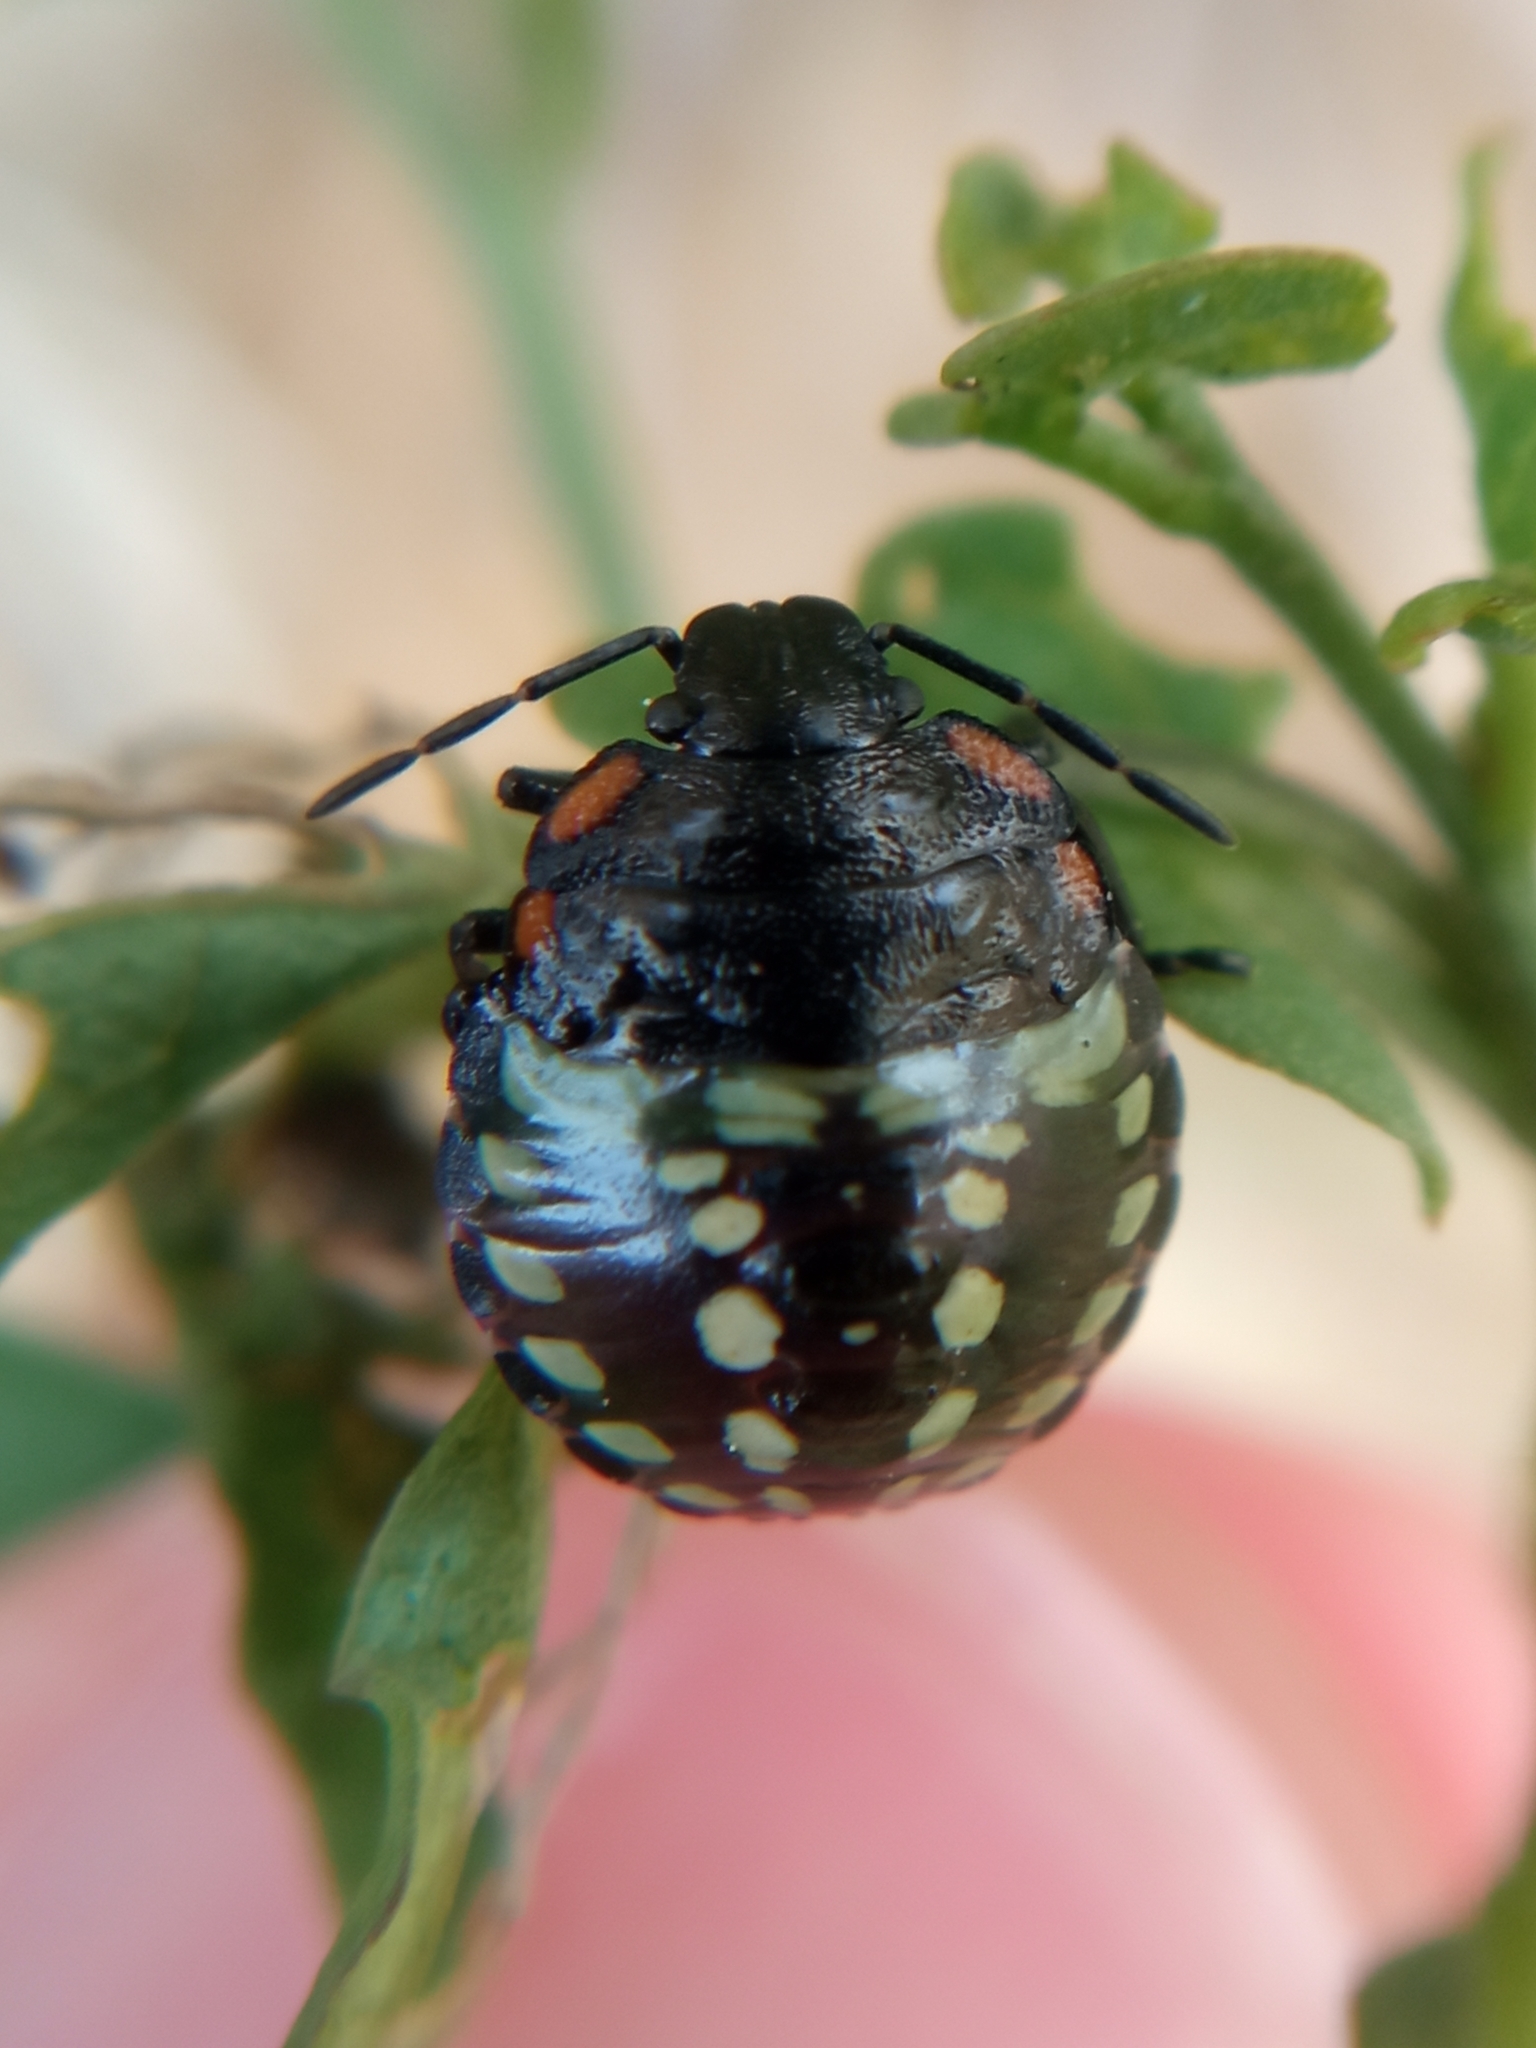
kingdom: Animalia
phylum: Arthropoda
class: Insecta
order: Hemiptera
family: Pentatomidae
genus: Nezara
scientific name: Nezara viridula
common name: Southern green stink bug
